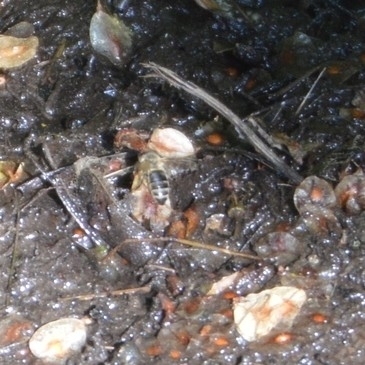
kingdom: Animalia
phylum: Arthropoda
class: Insecta
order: Hymenoptera
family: Apidae
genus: Apis
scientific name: Apis mellifera
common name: Honey bee
